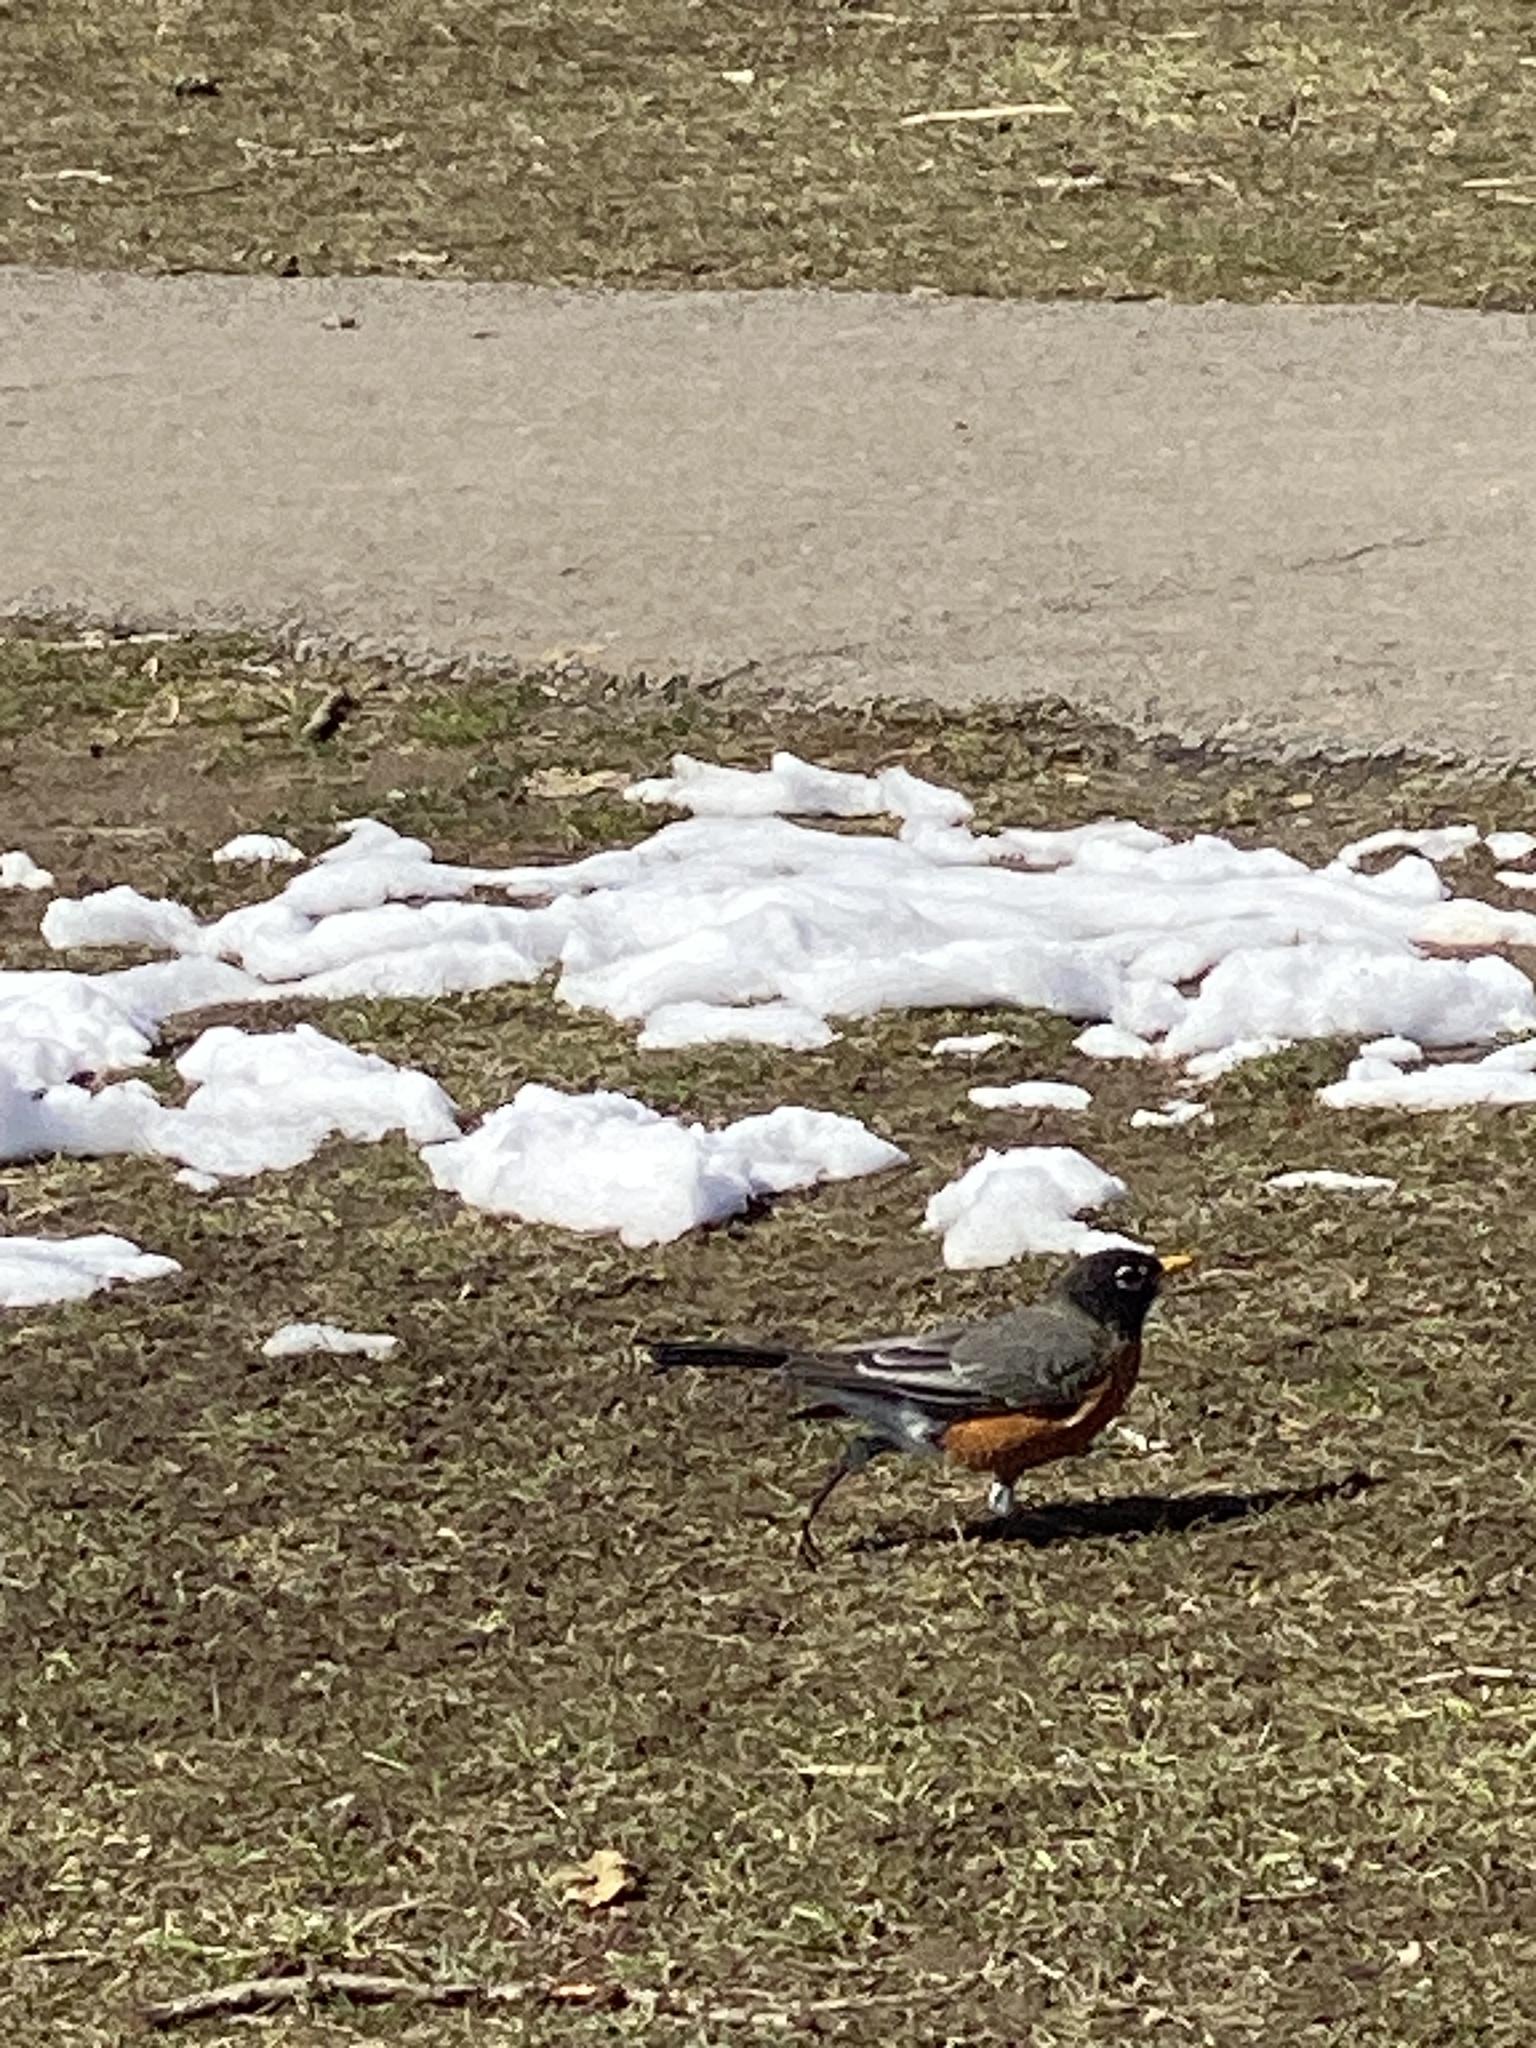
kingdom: Animalia
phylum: Chordata
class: Aves
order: Passeriformes
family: Turdidae
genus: Turdus
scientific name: Turdus migratorius
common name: American robin
